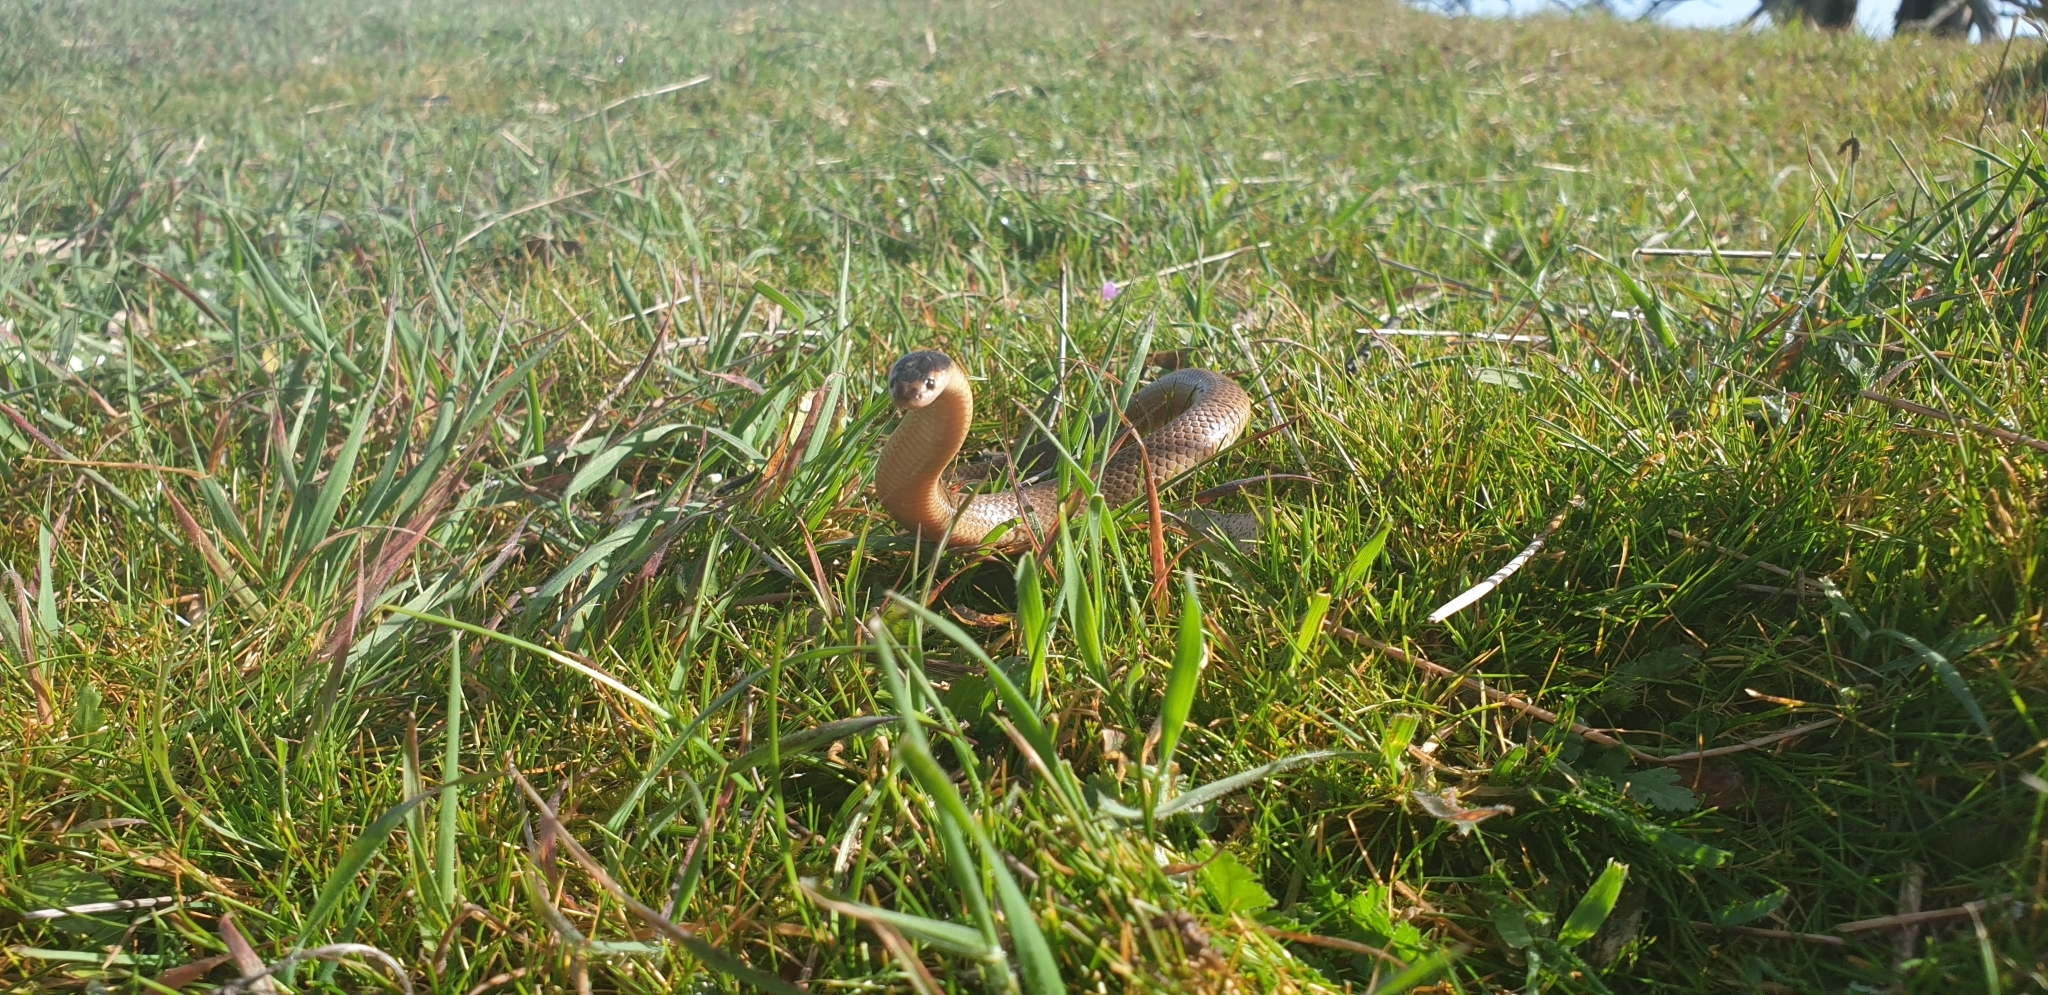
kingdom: Animalia
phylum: Chordata
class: Squamata
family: Elapidae
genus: Suta
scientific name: Suta flagellum
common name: Little whip snake
